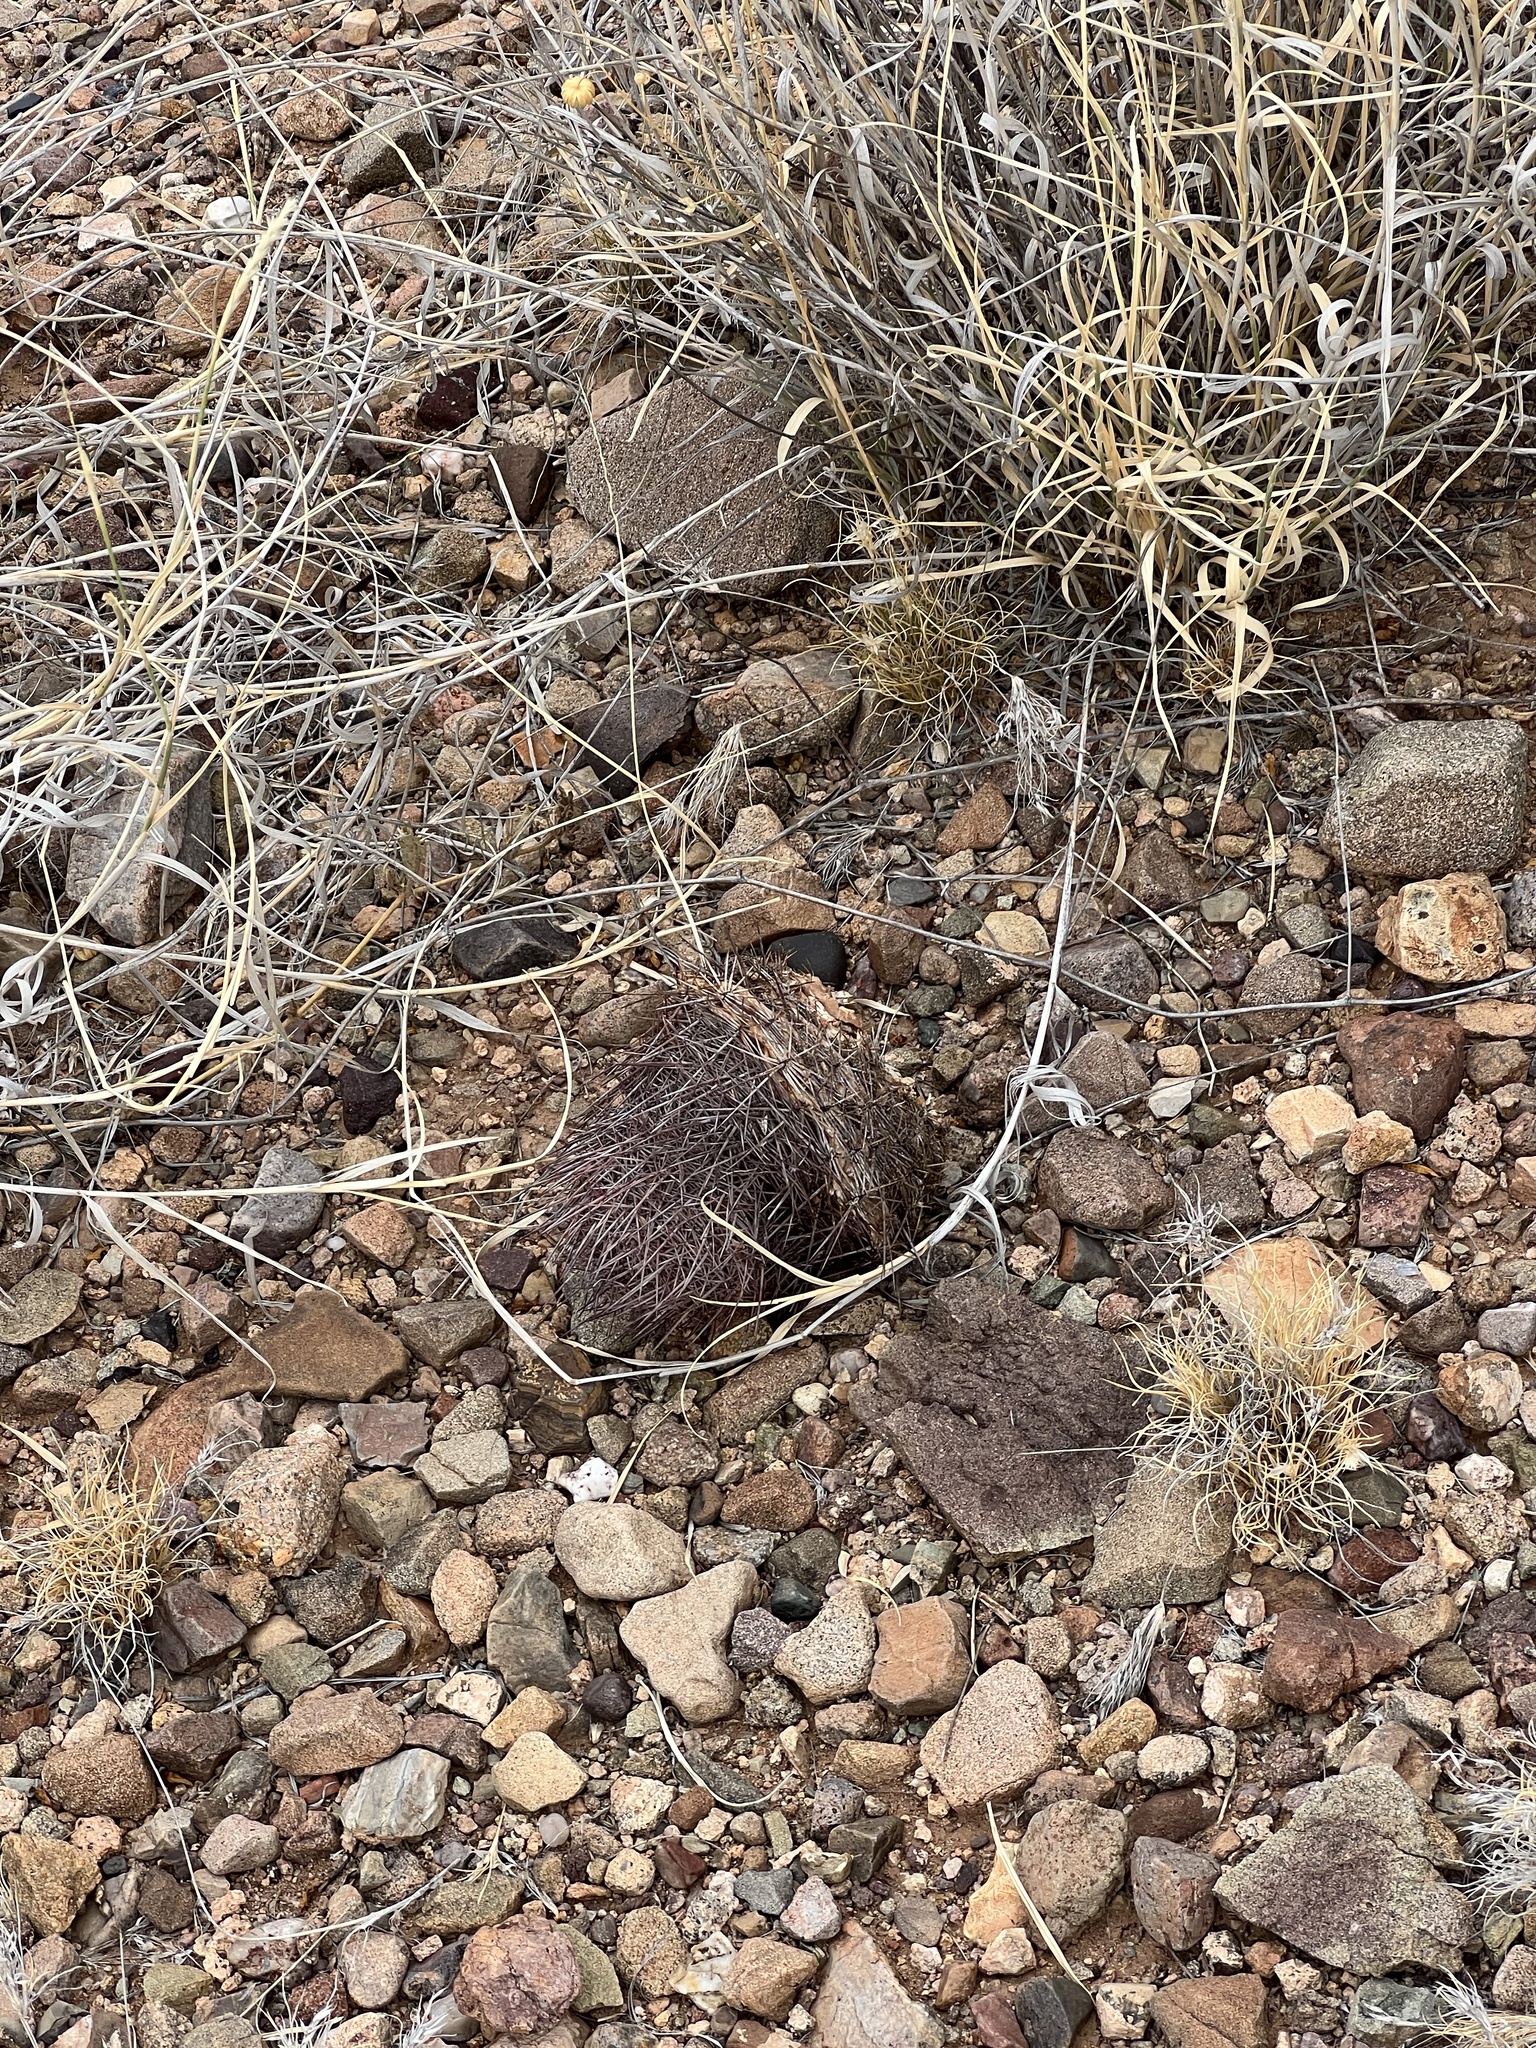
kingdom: Plantae
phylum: Tracheophyta
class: Magnoliopsida
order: Caryophyllales
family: Cactaceae
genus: Sclerocactus
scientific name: Sclerocactus johnsonii
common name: Eight-spine fishhook cactus
